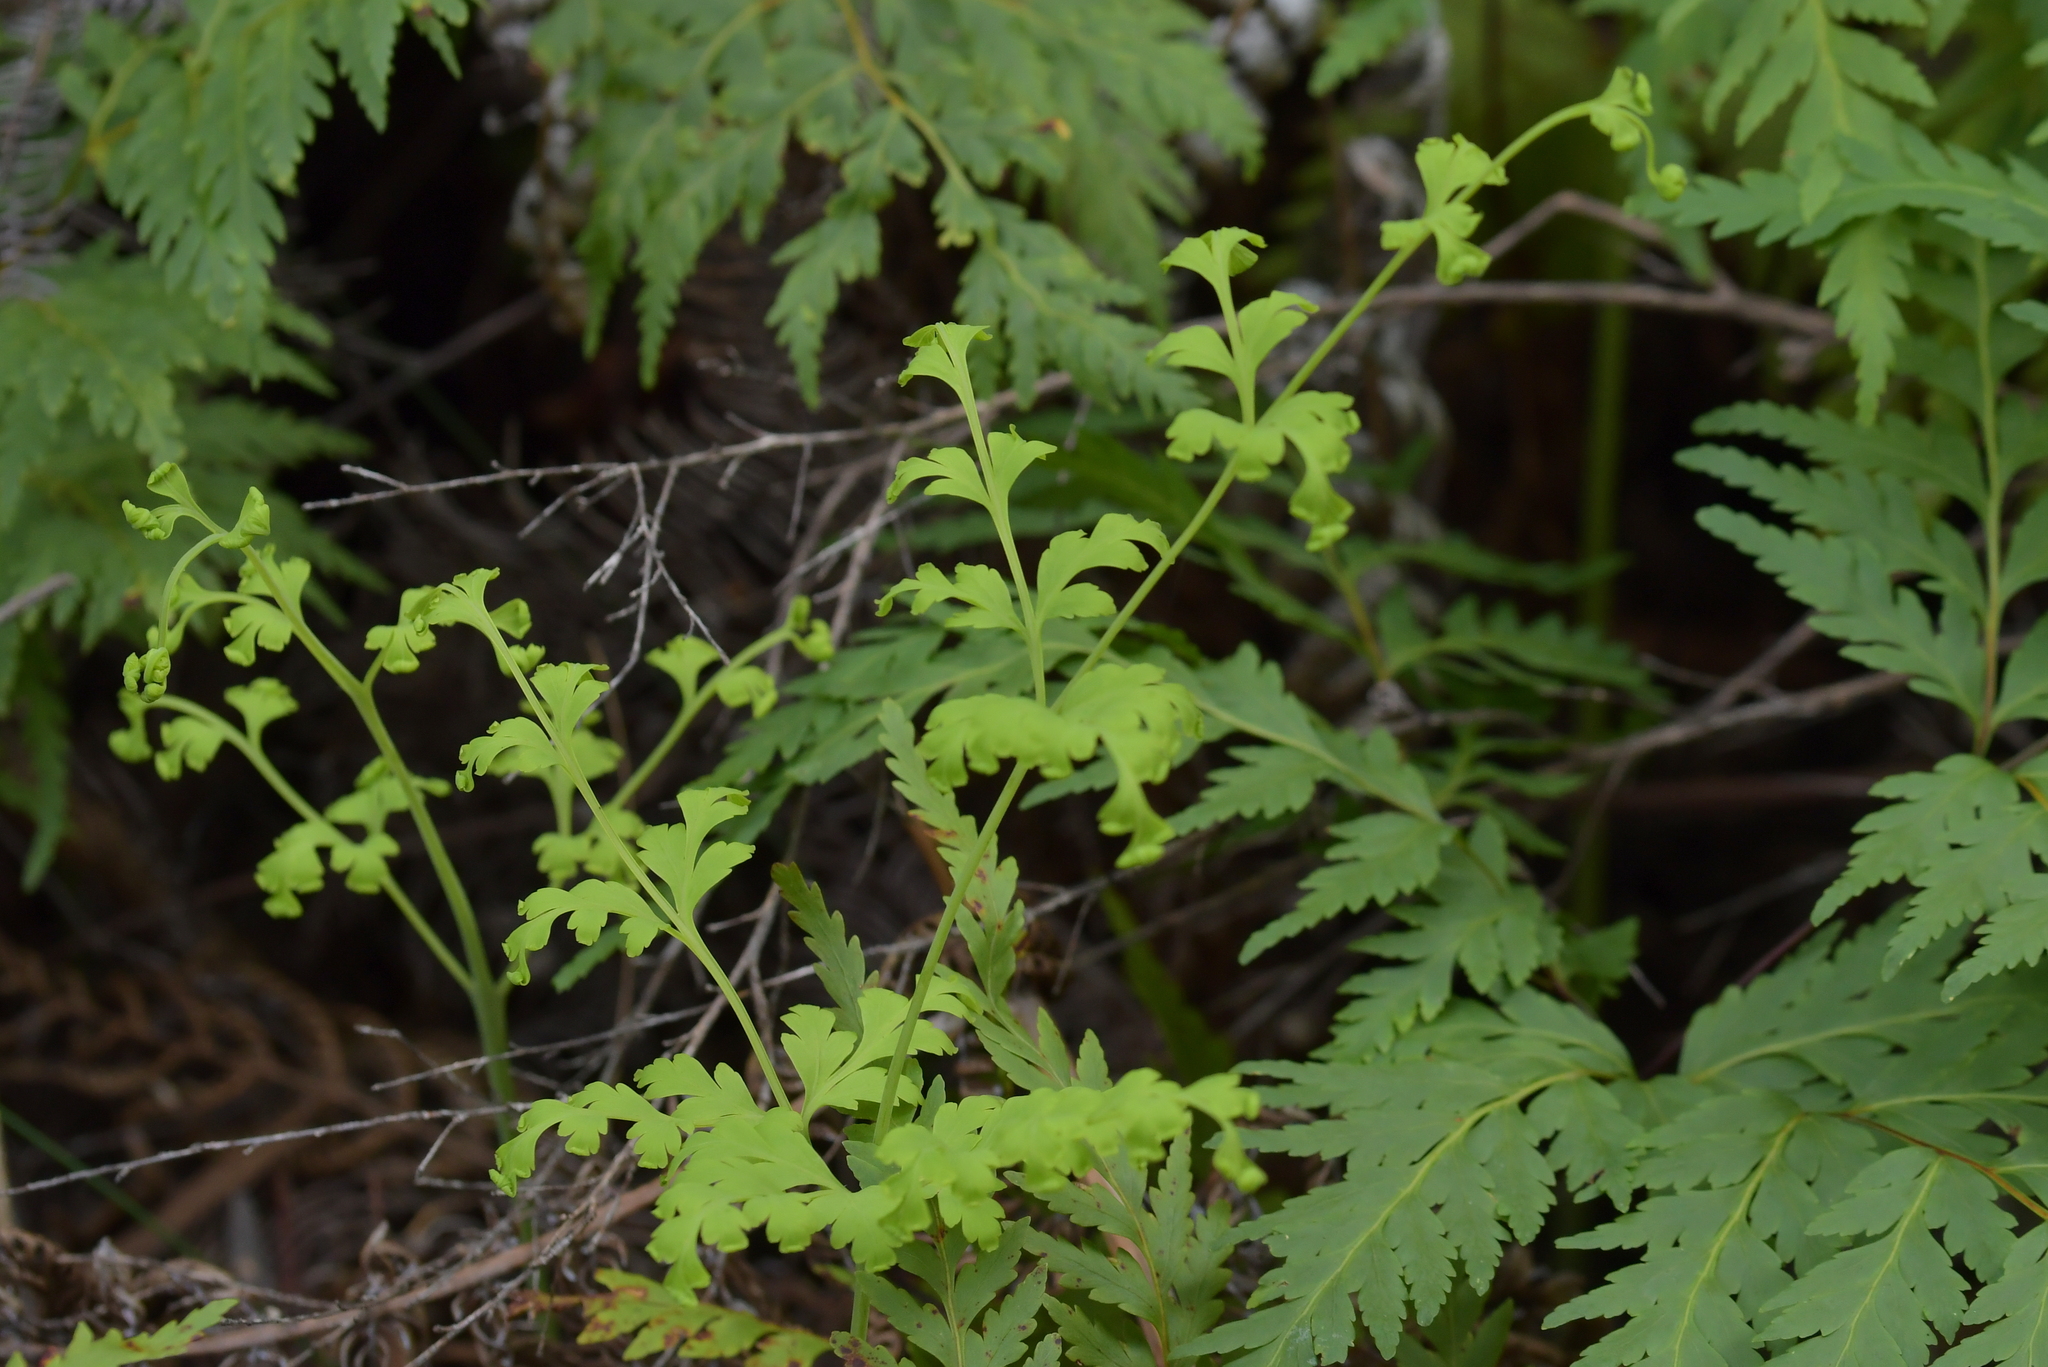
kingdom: Plantae
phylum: Tracheophyta
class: Polypodiopsida
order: Polypodiales
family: Dennstaedtiaceae
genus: Histiopteris
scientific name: Histiopteris incisa
